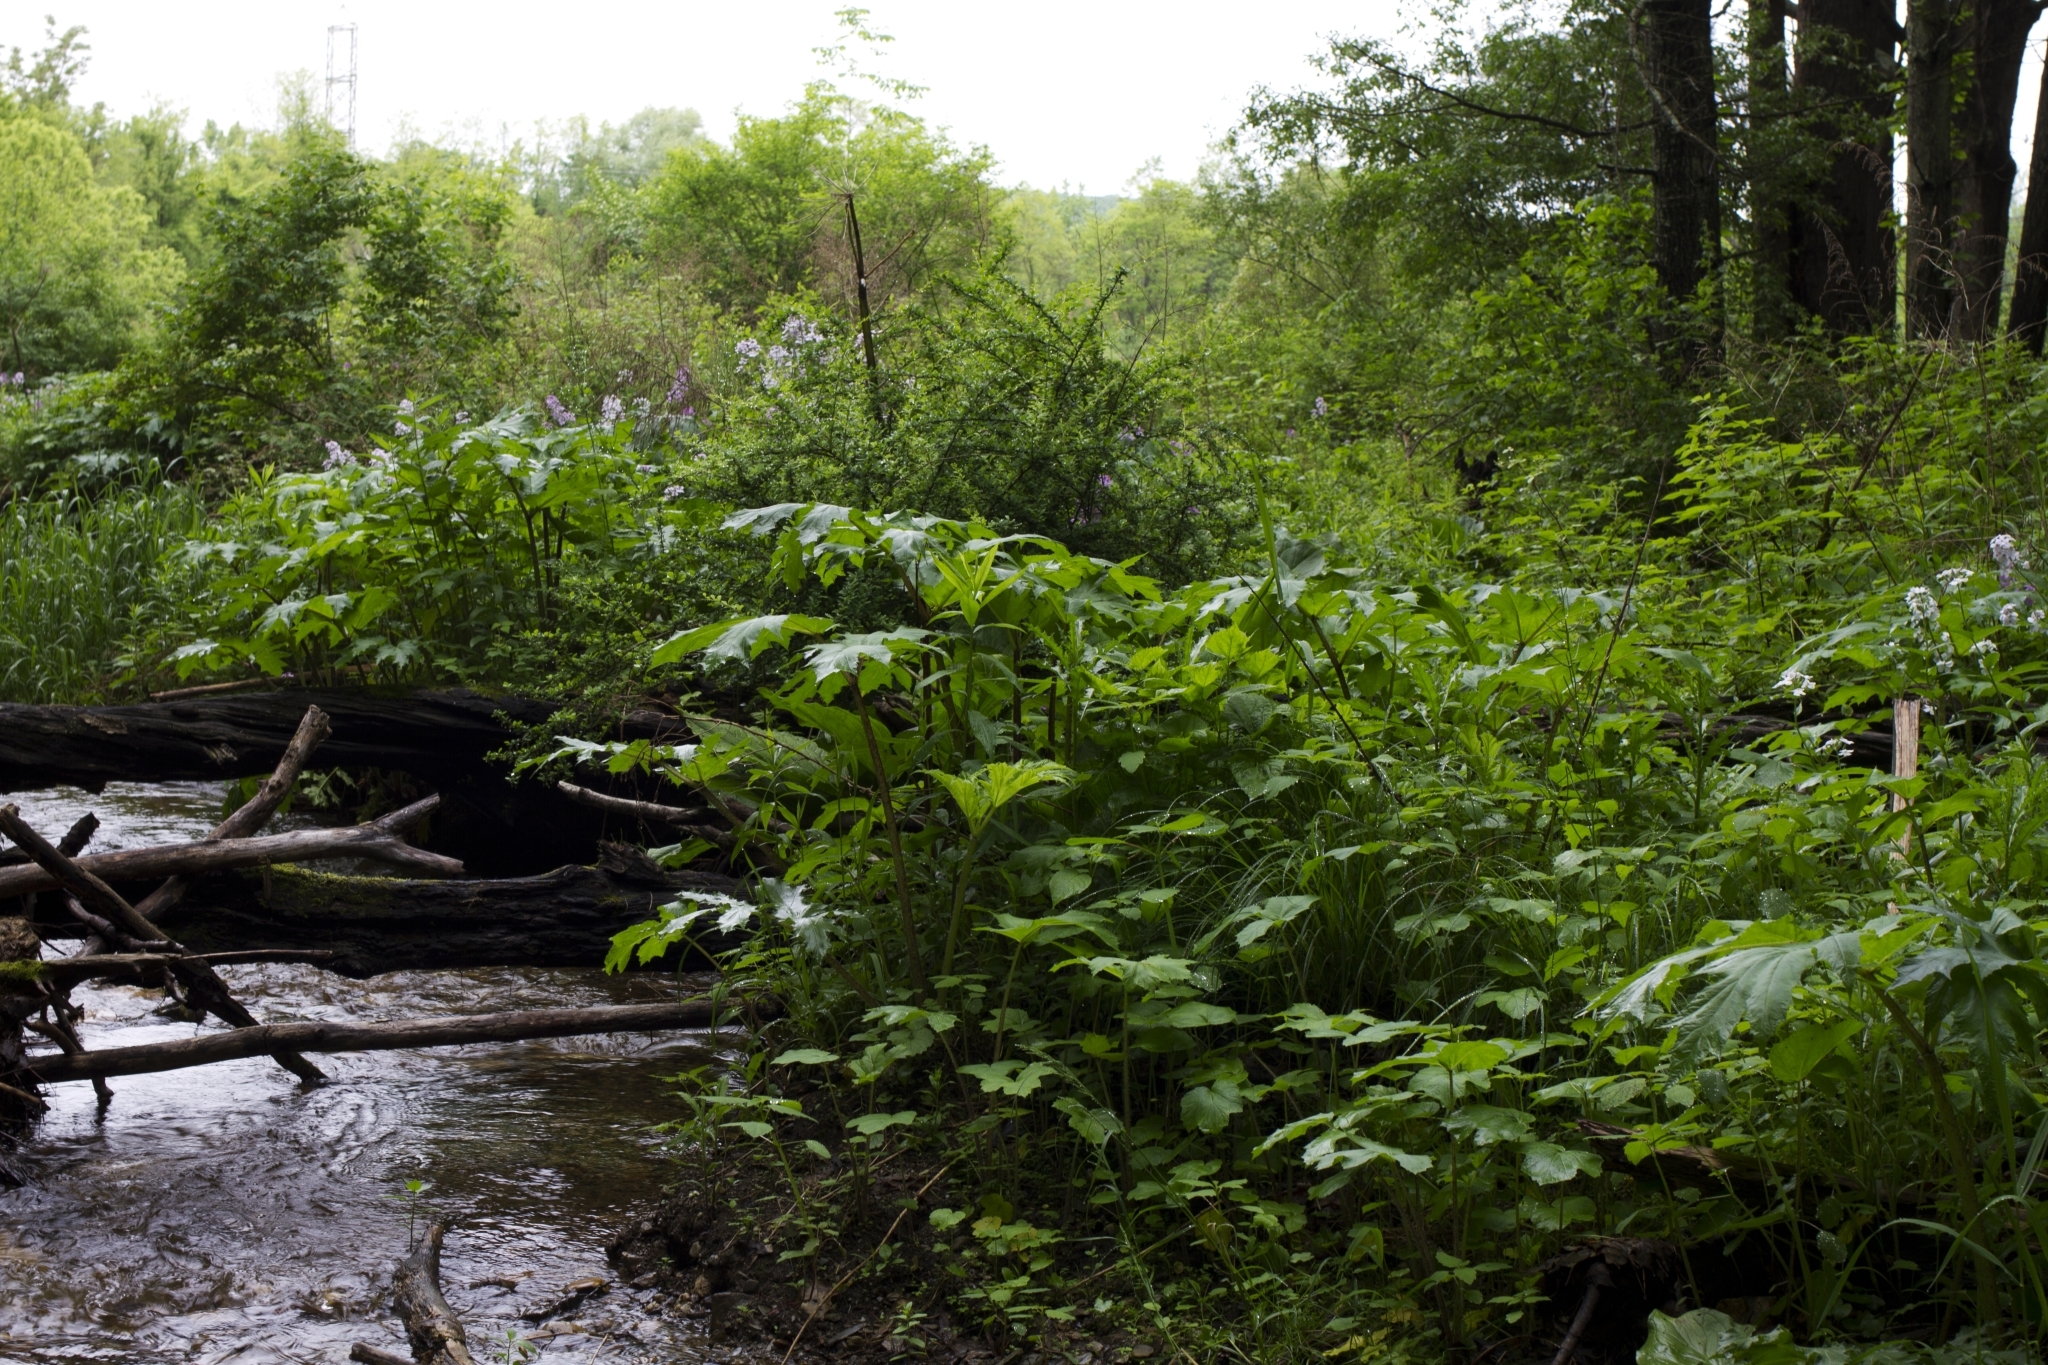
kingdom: Plantae
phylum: Tracheophyta
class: Magnoliopsida
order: Apiales
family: Apiaceae
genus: Heracleum
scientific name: Heracleum mantegazzianum
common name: Giant hogweed
